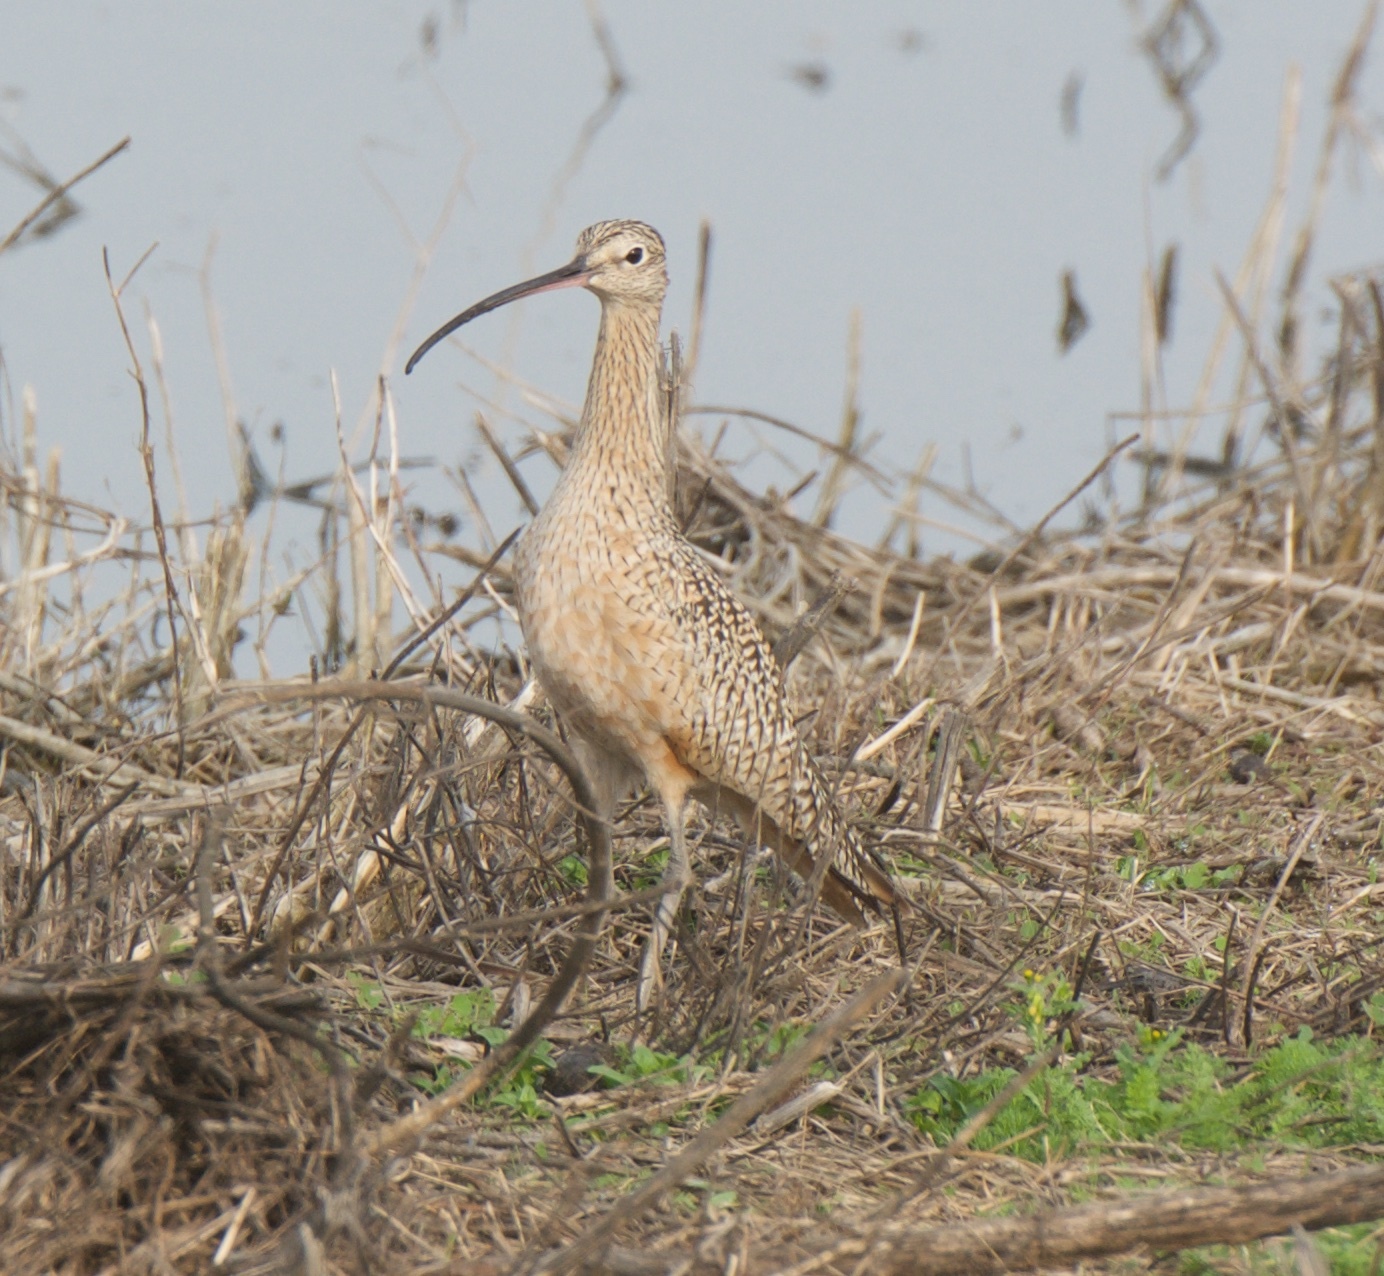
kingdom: Animalia
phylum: Chordata
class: Aves
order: Charadriiformes
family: Scolopacidae
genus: Numenius
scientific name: Numenius americanus
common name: Long-billed curlew
